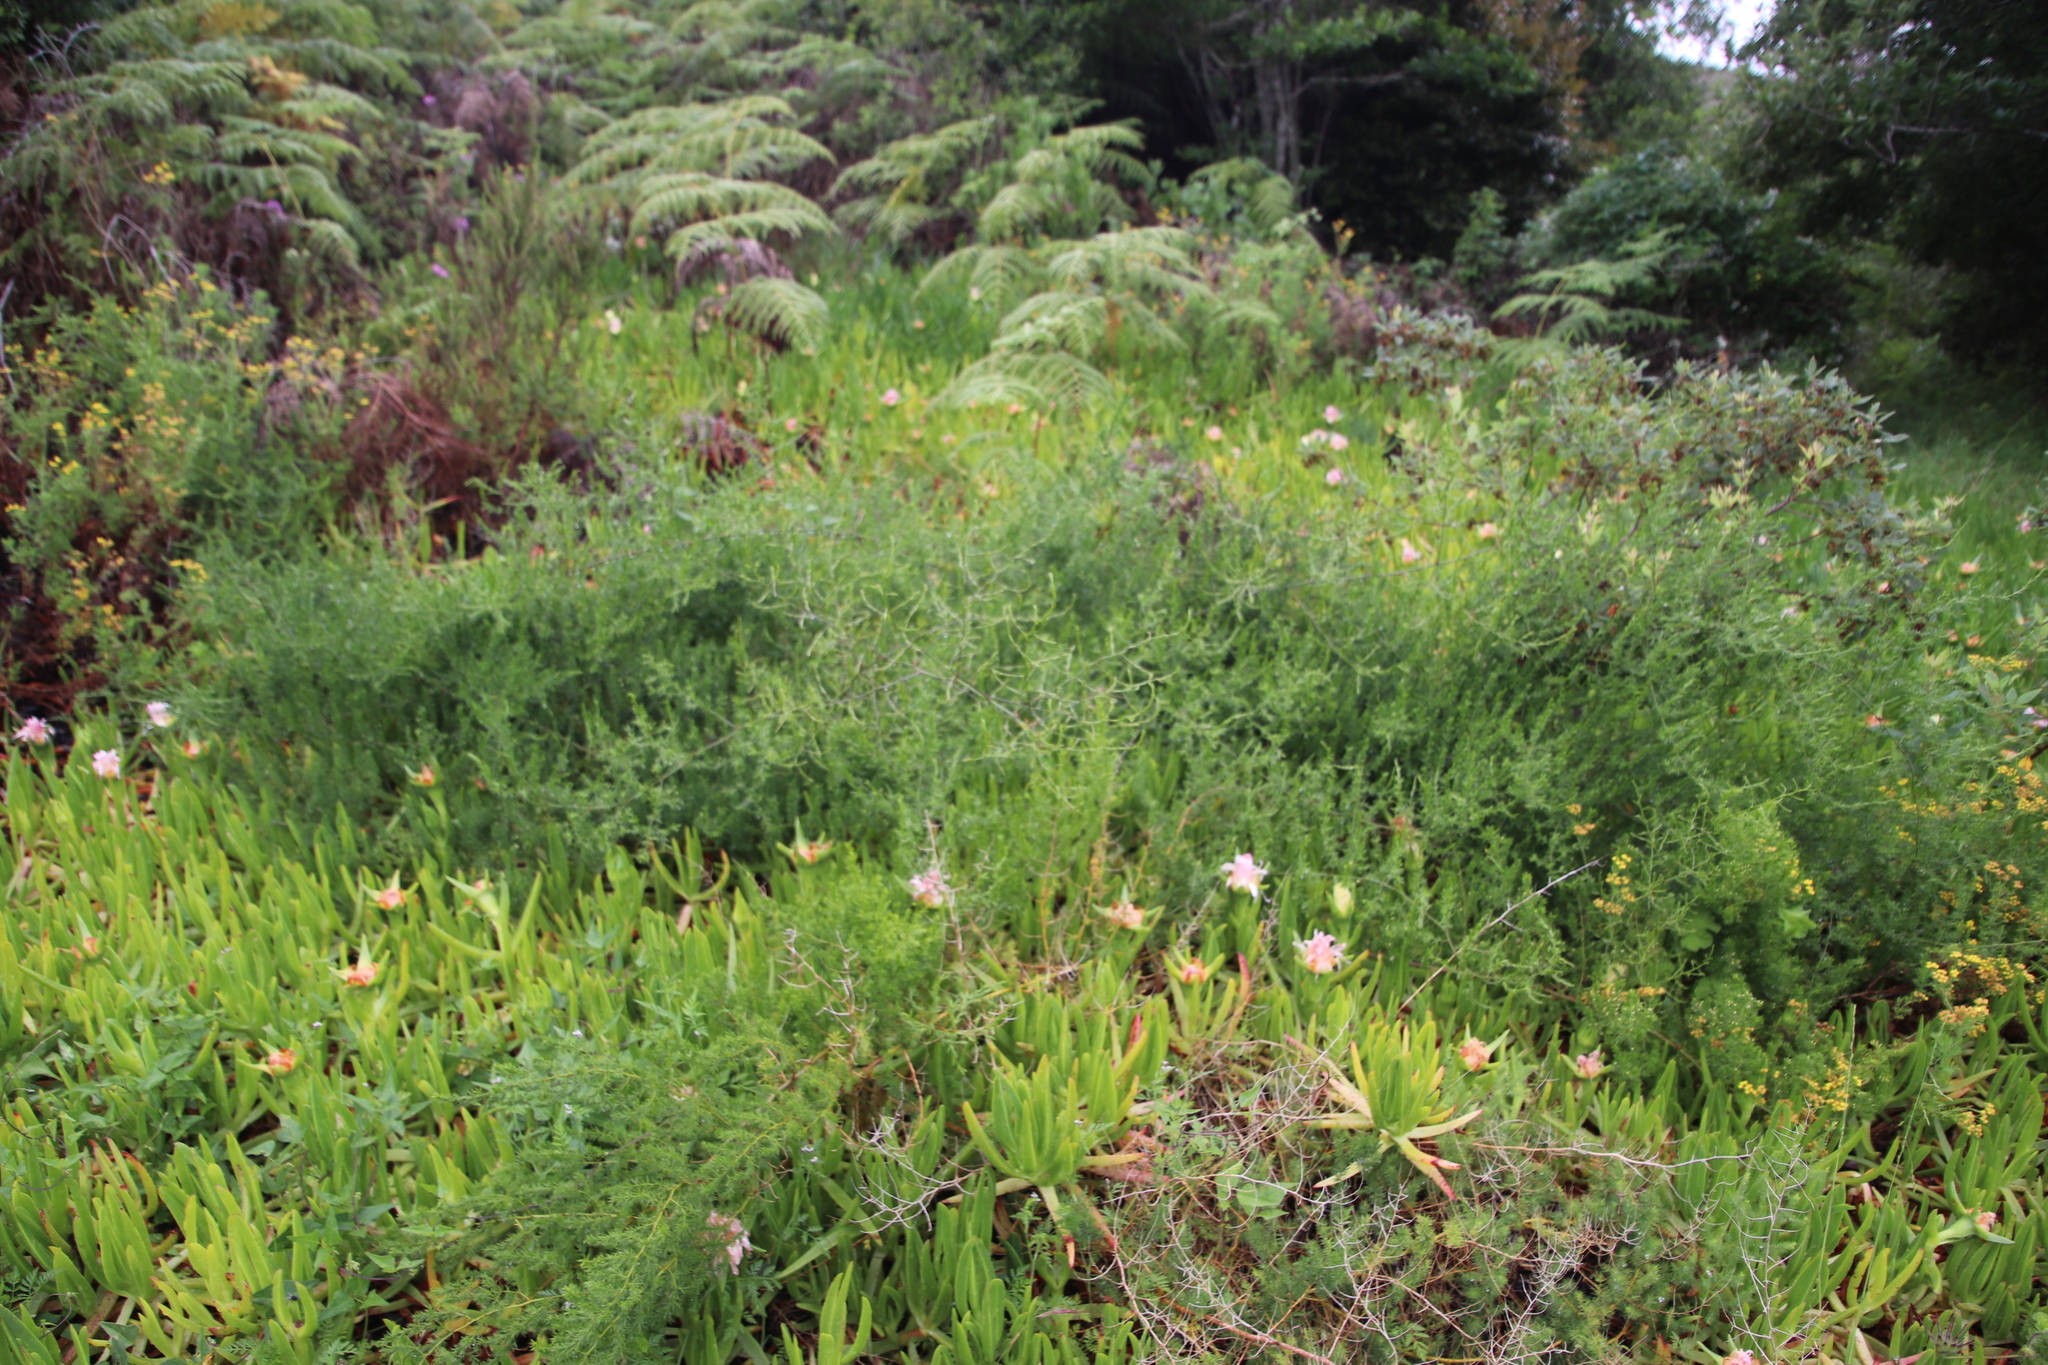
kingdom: Plantae
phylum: Tracheophyta
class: Magnoliopsida
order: Caryophyllales
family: Aizoaceae
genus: Carpobrotus
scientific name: Carpobrotus edulis
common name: Hottentot-fig
